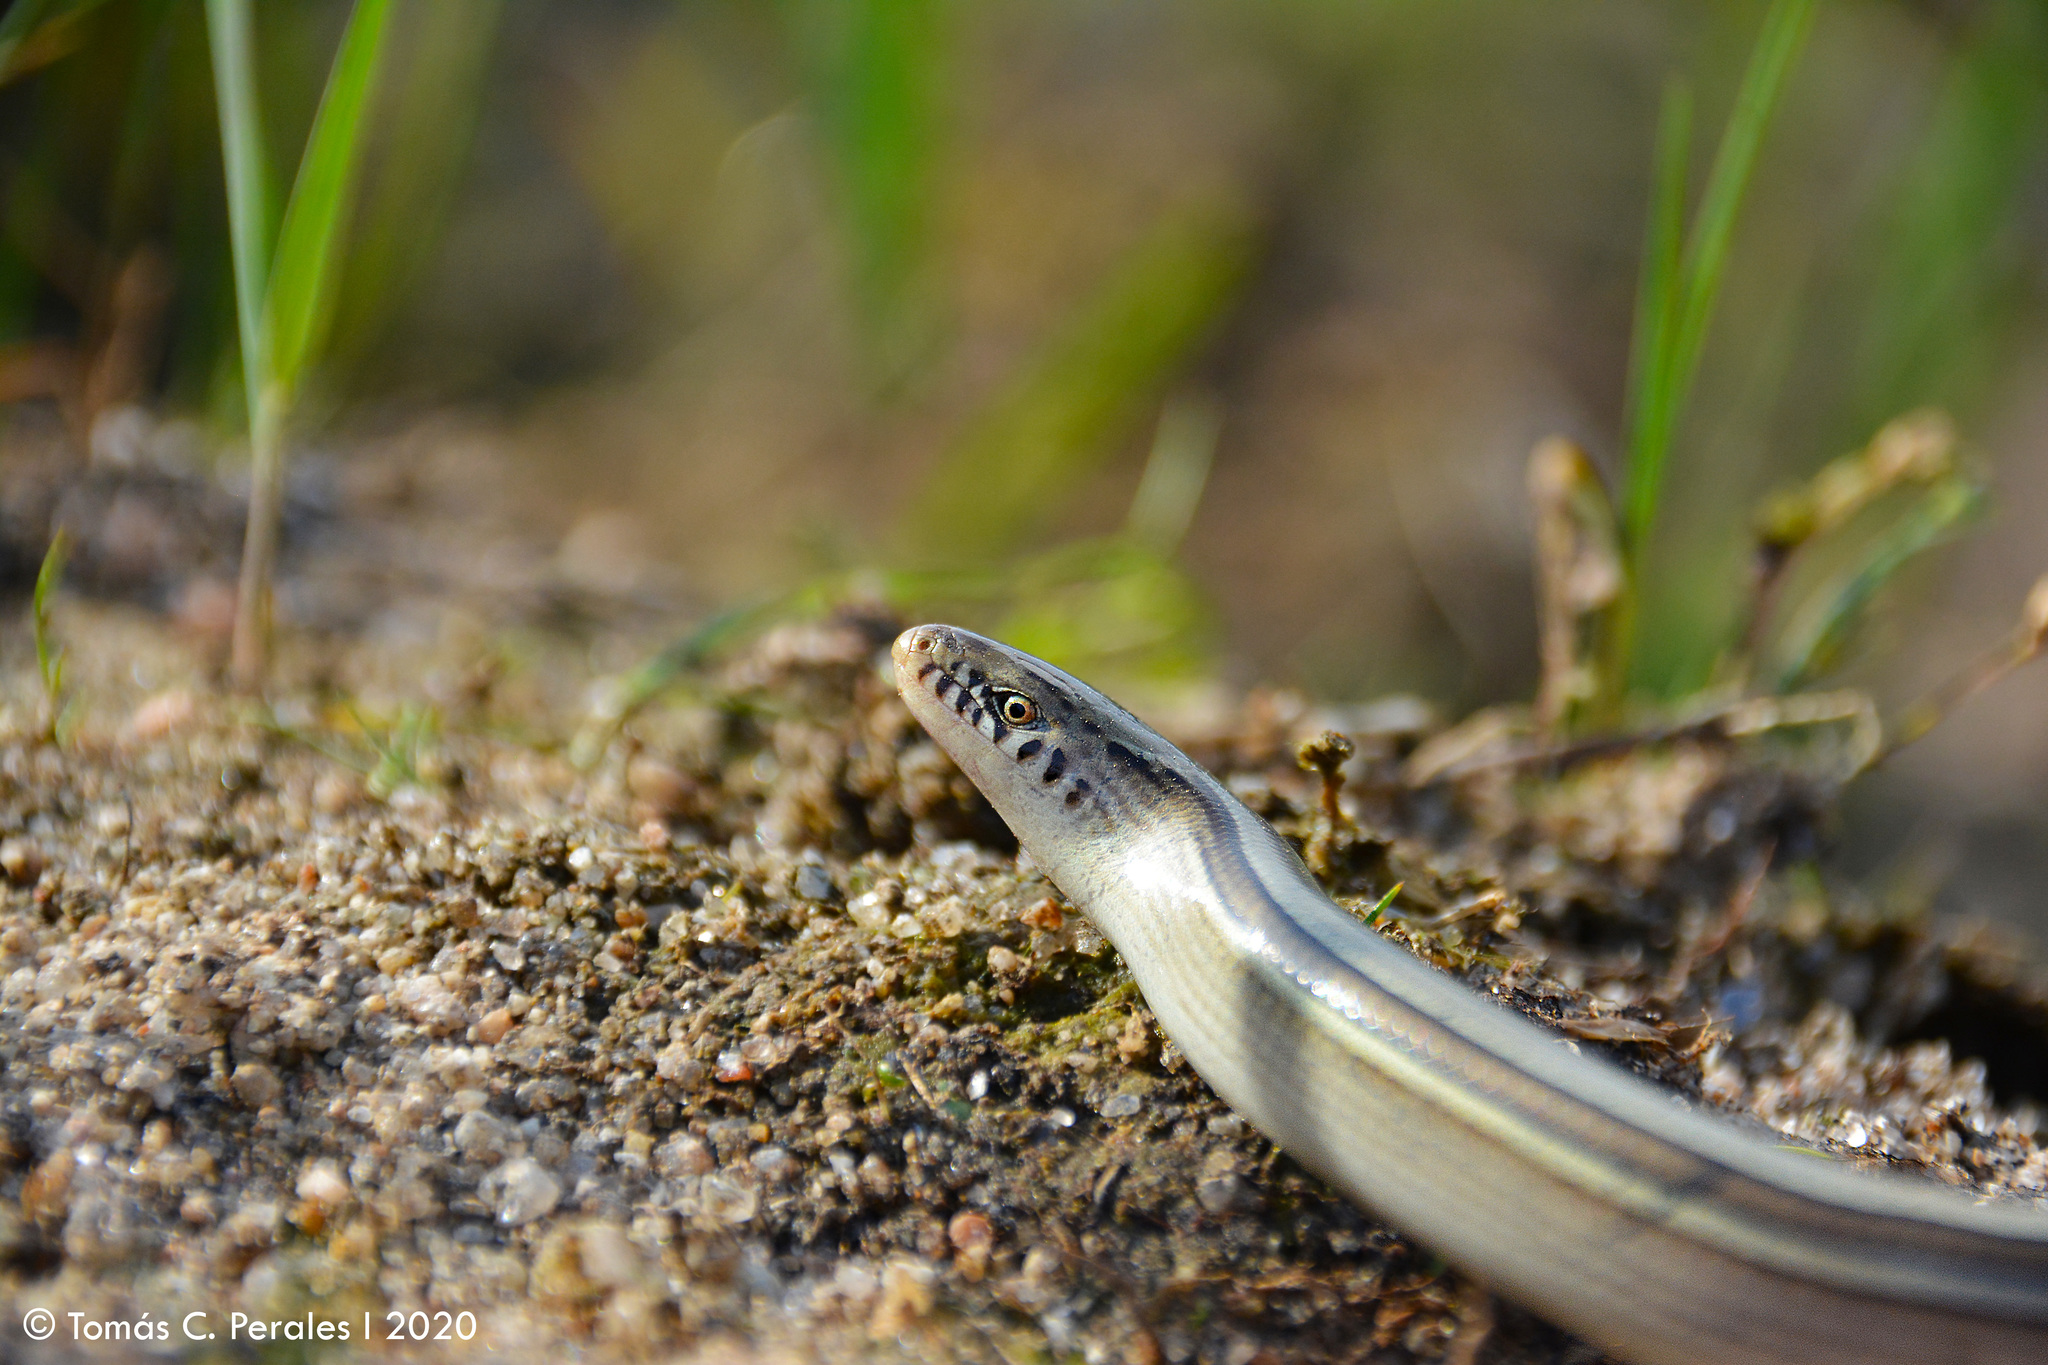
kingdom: Animalia
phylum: Chordata
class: Squamata
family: Diploglossidae
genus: Ophiodes
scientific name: Ophiodes intermedius
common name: Middle worm lizard
